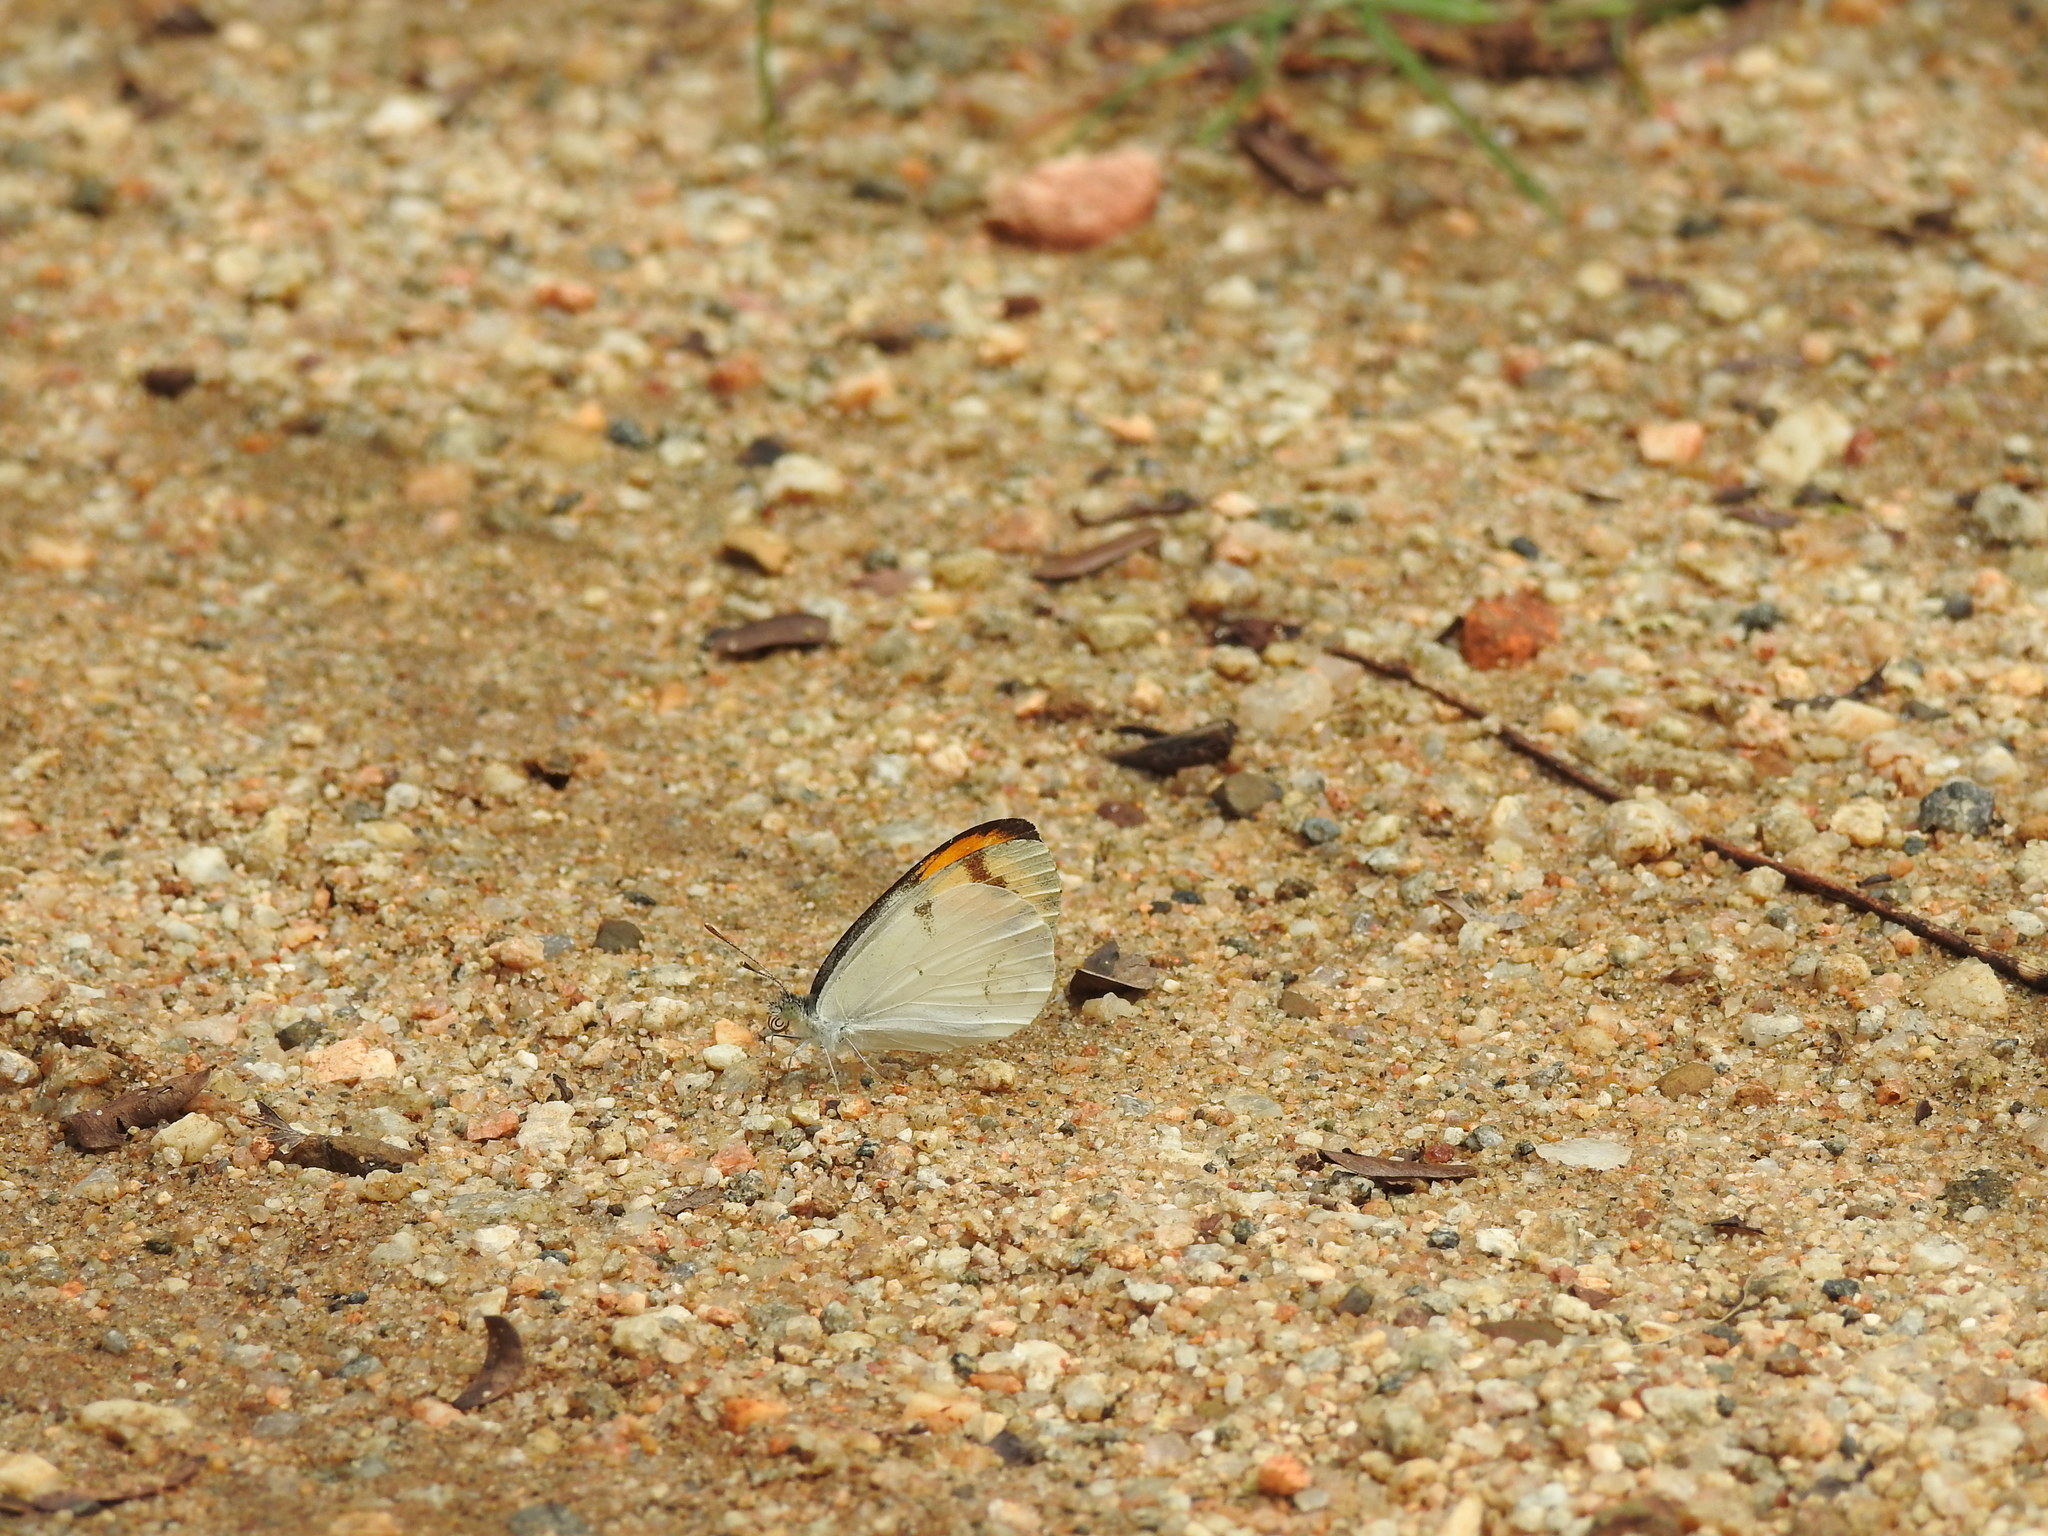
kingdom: Animalia
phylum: Arthropoda
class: Insecta
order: Lepidoptera
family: Pieridae
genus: Colotis
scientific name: Colotis etrida
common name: Little orange tip
